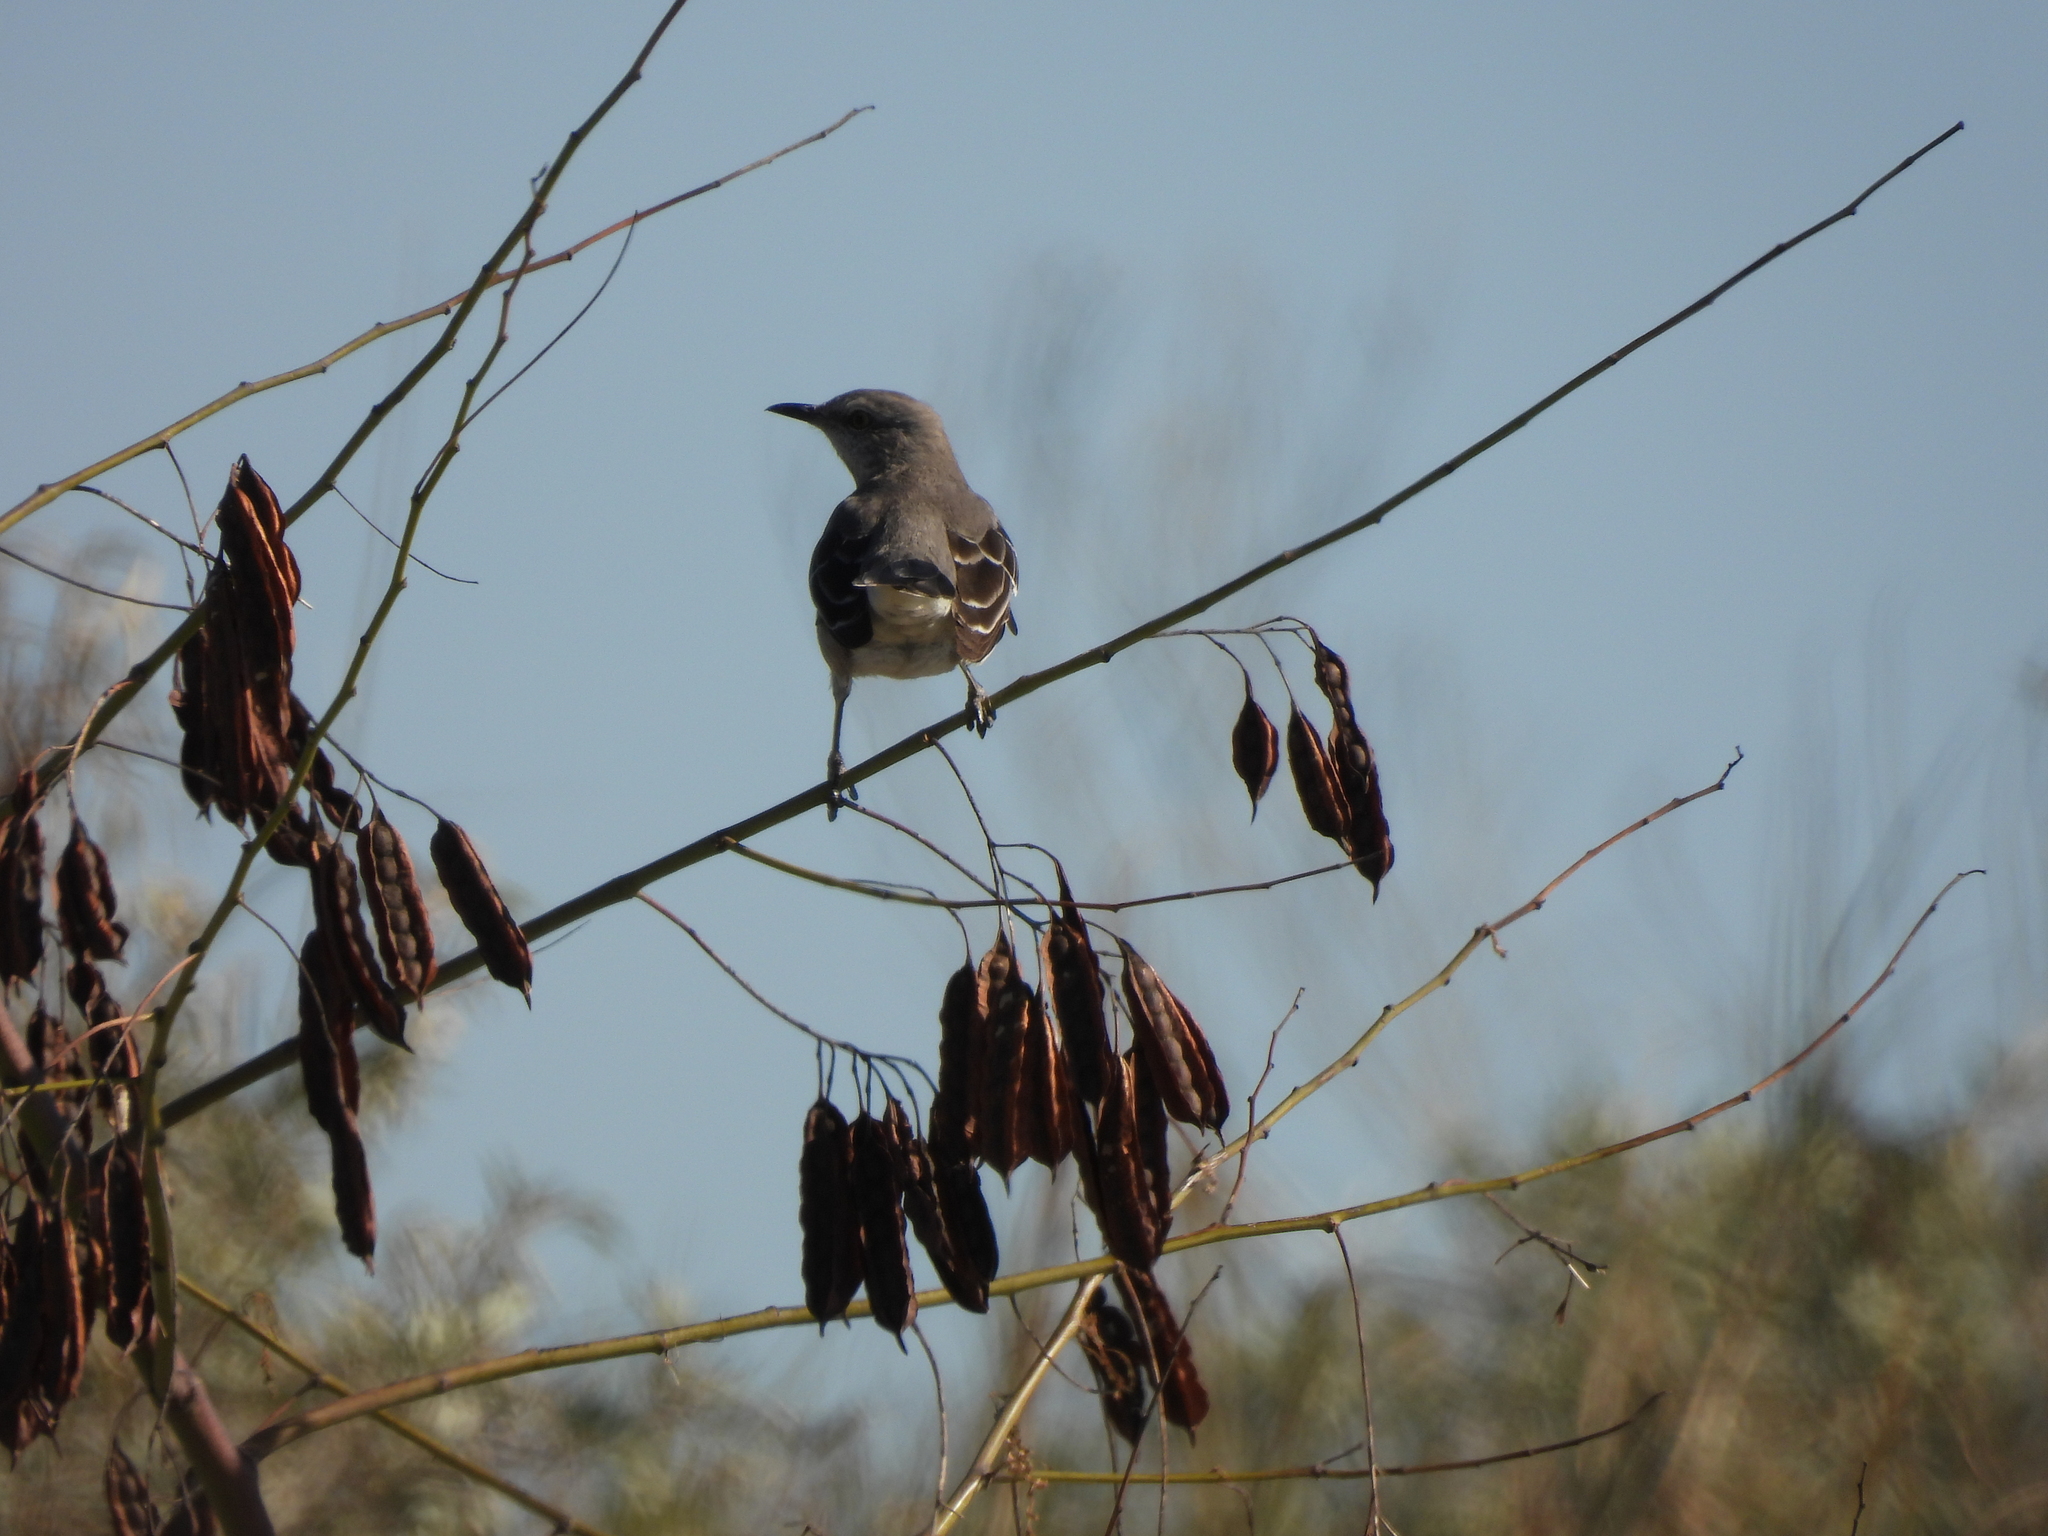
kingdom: Animalia
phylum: Chordata
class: Aves
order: Passeriformes
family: Mimidae
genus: Mimus
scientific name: Mimus polyglottos
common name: Northern mockingbird
